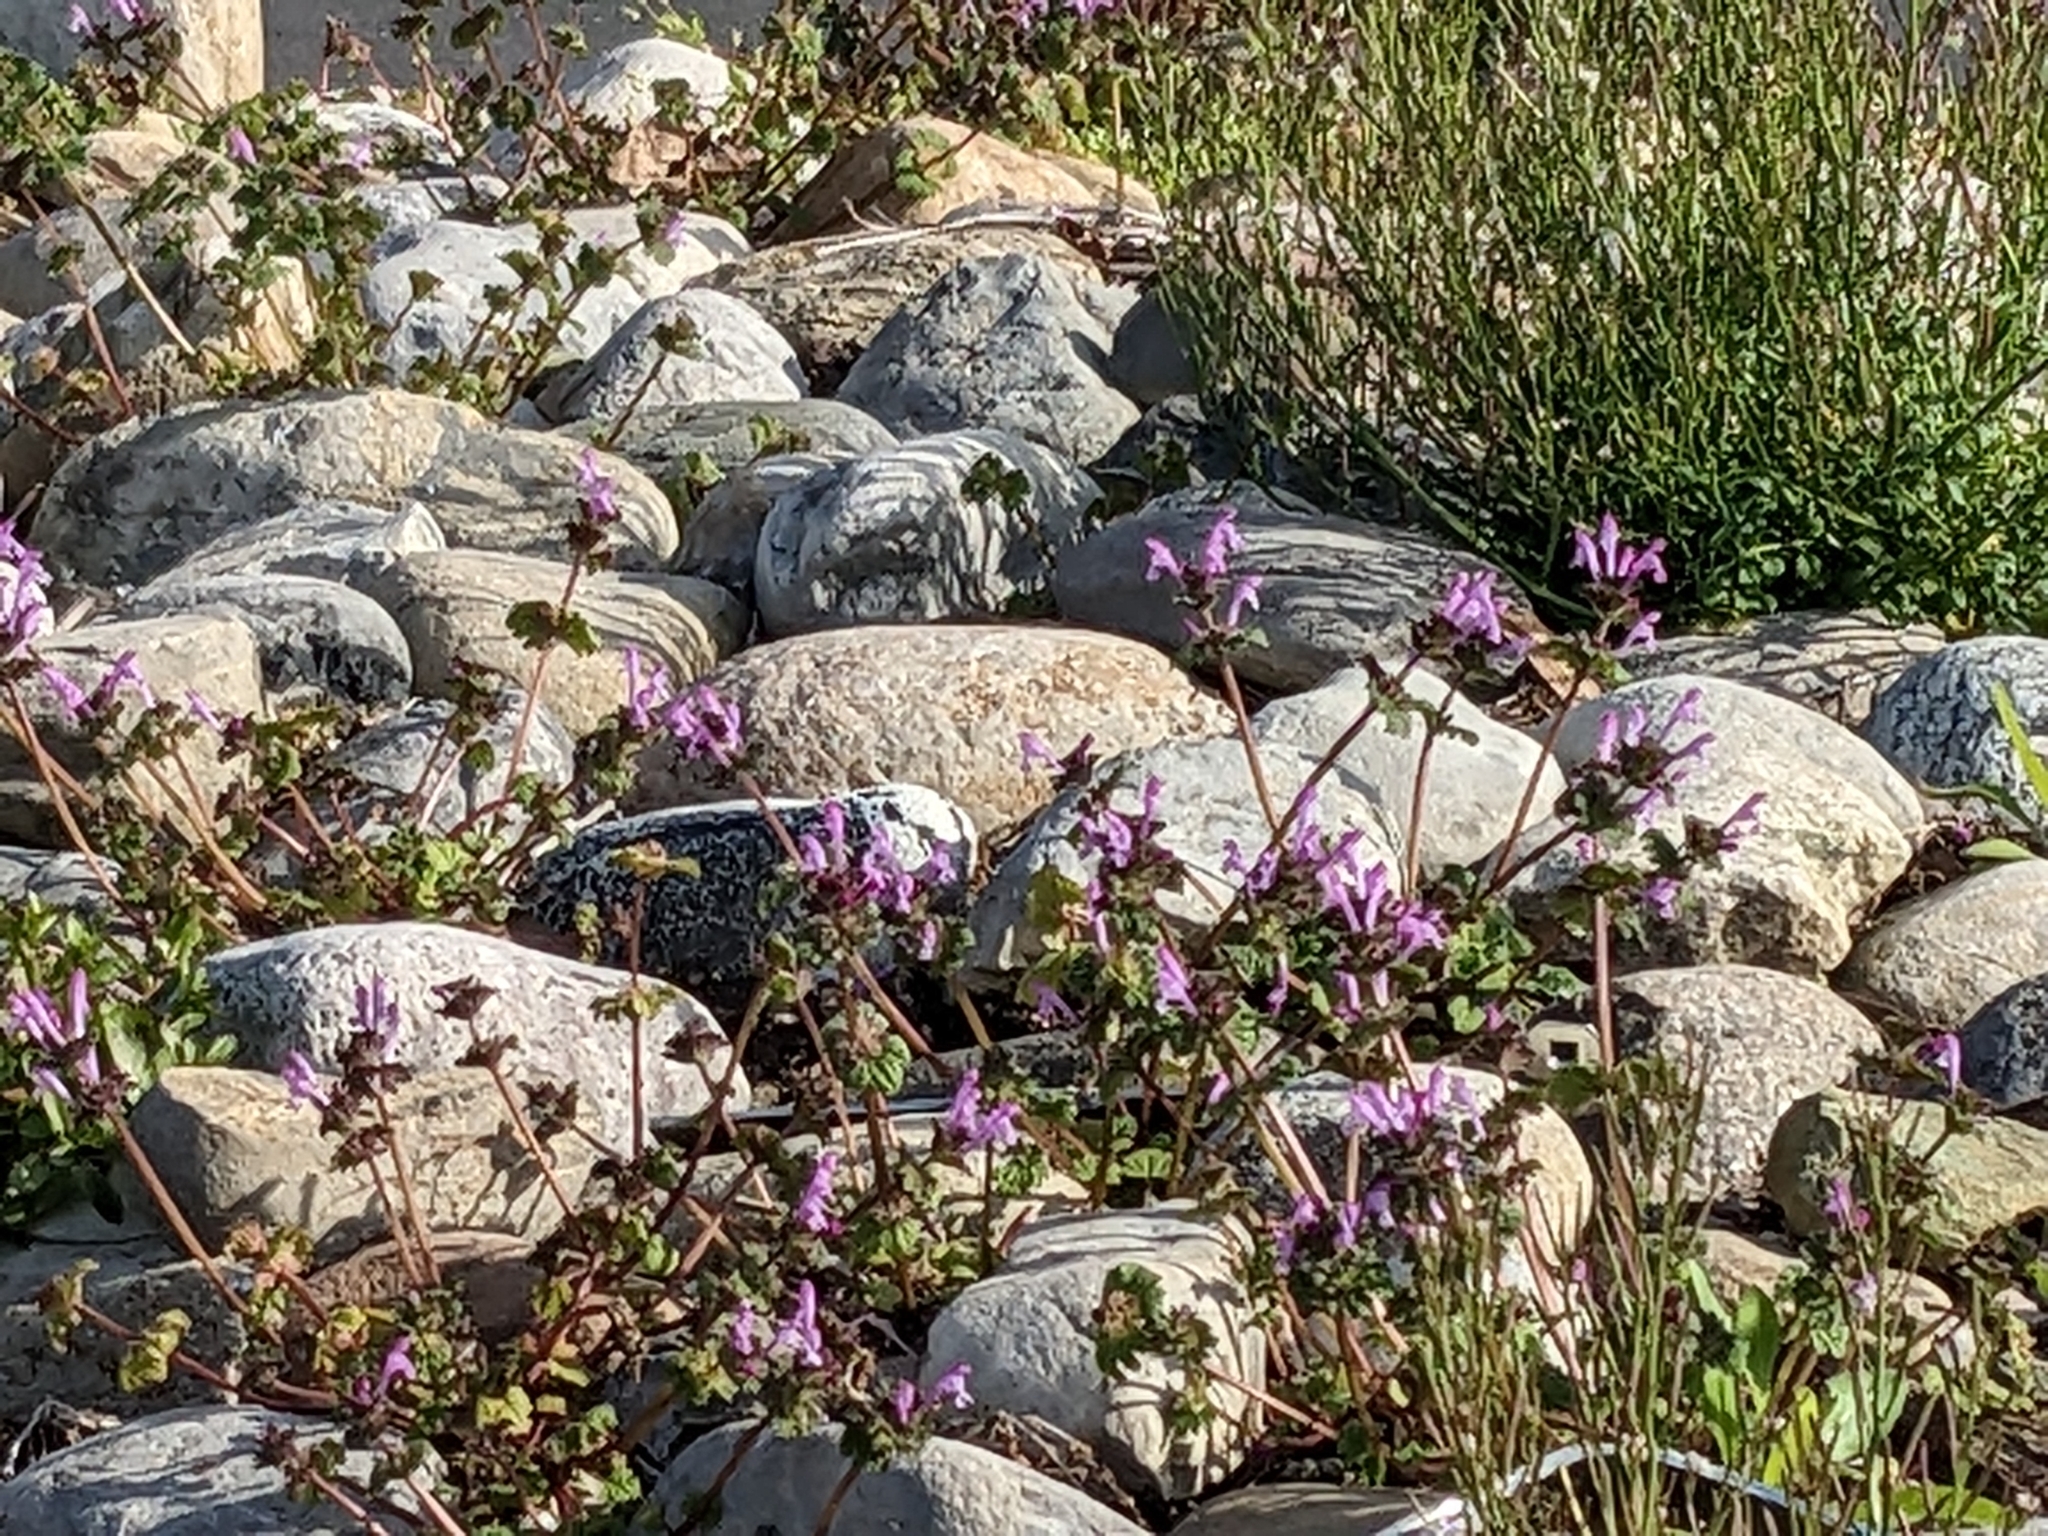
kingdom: Plantae
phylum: Tracheophyta
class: Magnoliopsida
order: Lamiales
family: Lamiaceae
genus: Lamium
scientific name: Lamium amplexicaule
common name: Henbit dead-nettle
